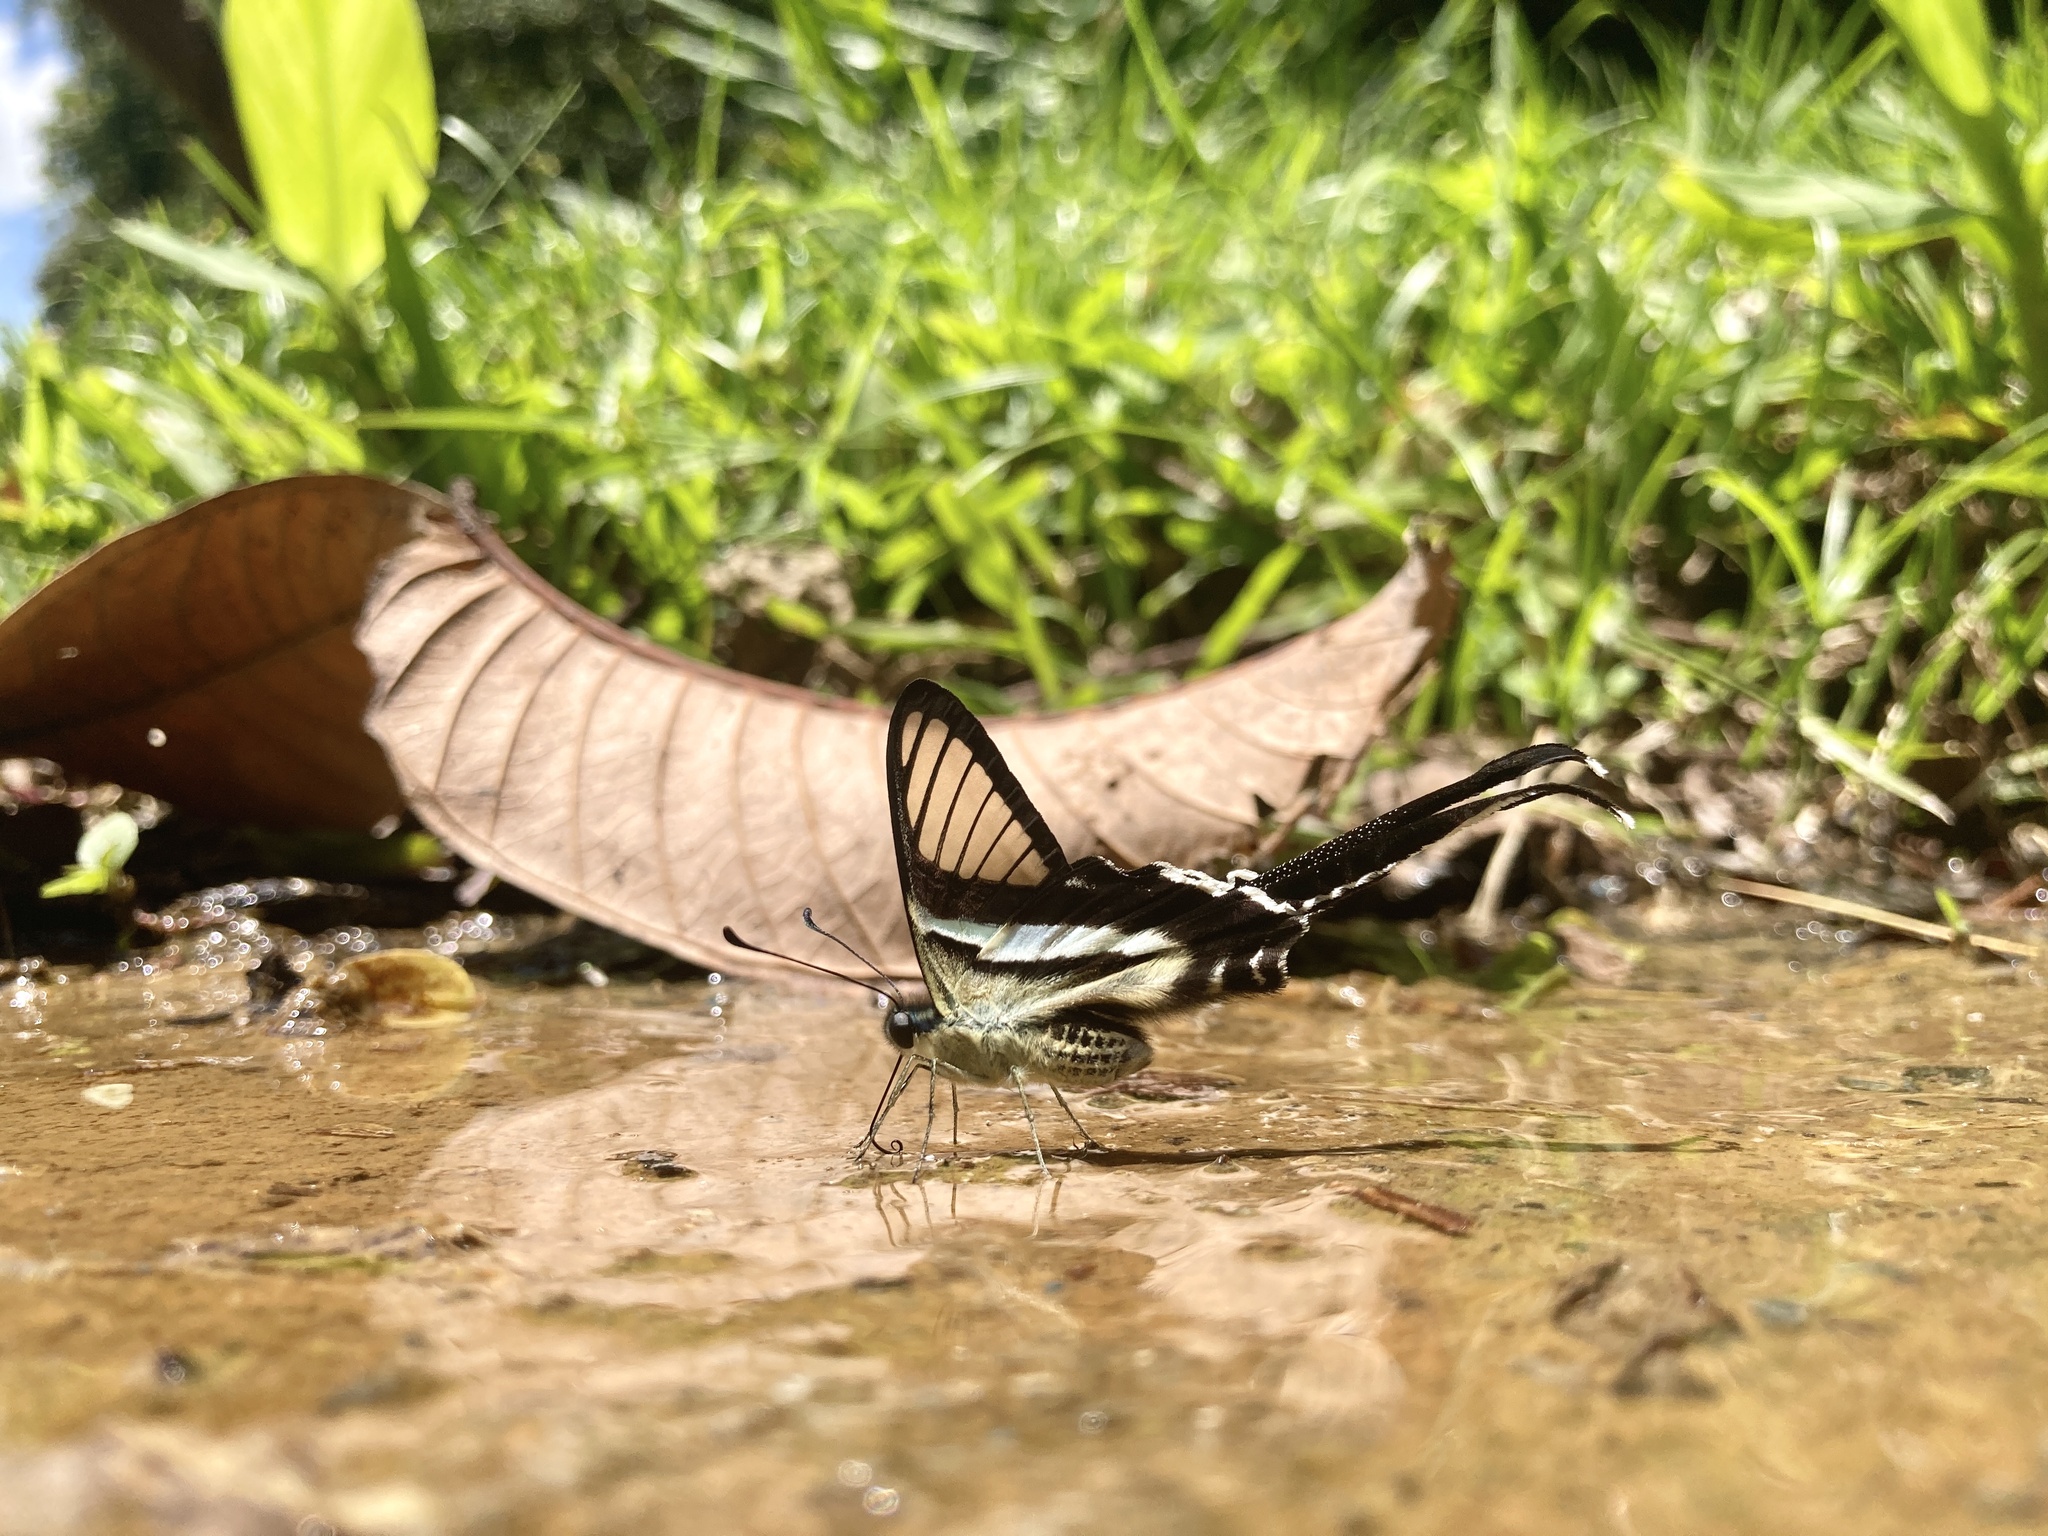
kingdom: Animalia
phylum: Arthropoda
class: Insecta
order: Lepidoptera
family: Papilionidae
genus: Lamproptera
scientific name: Lamproptera meges
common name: Green dragontail
